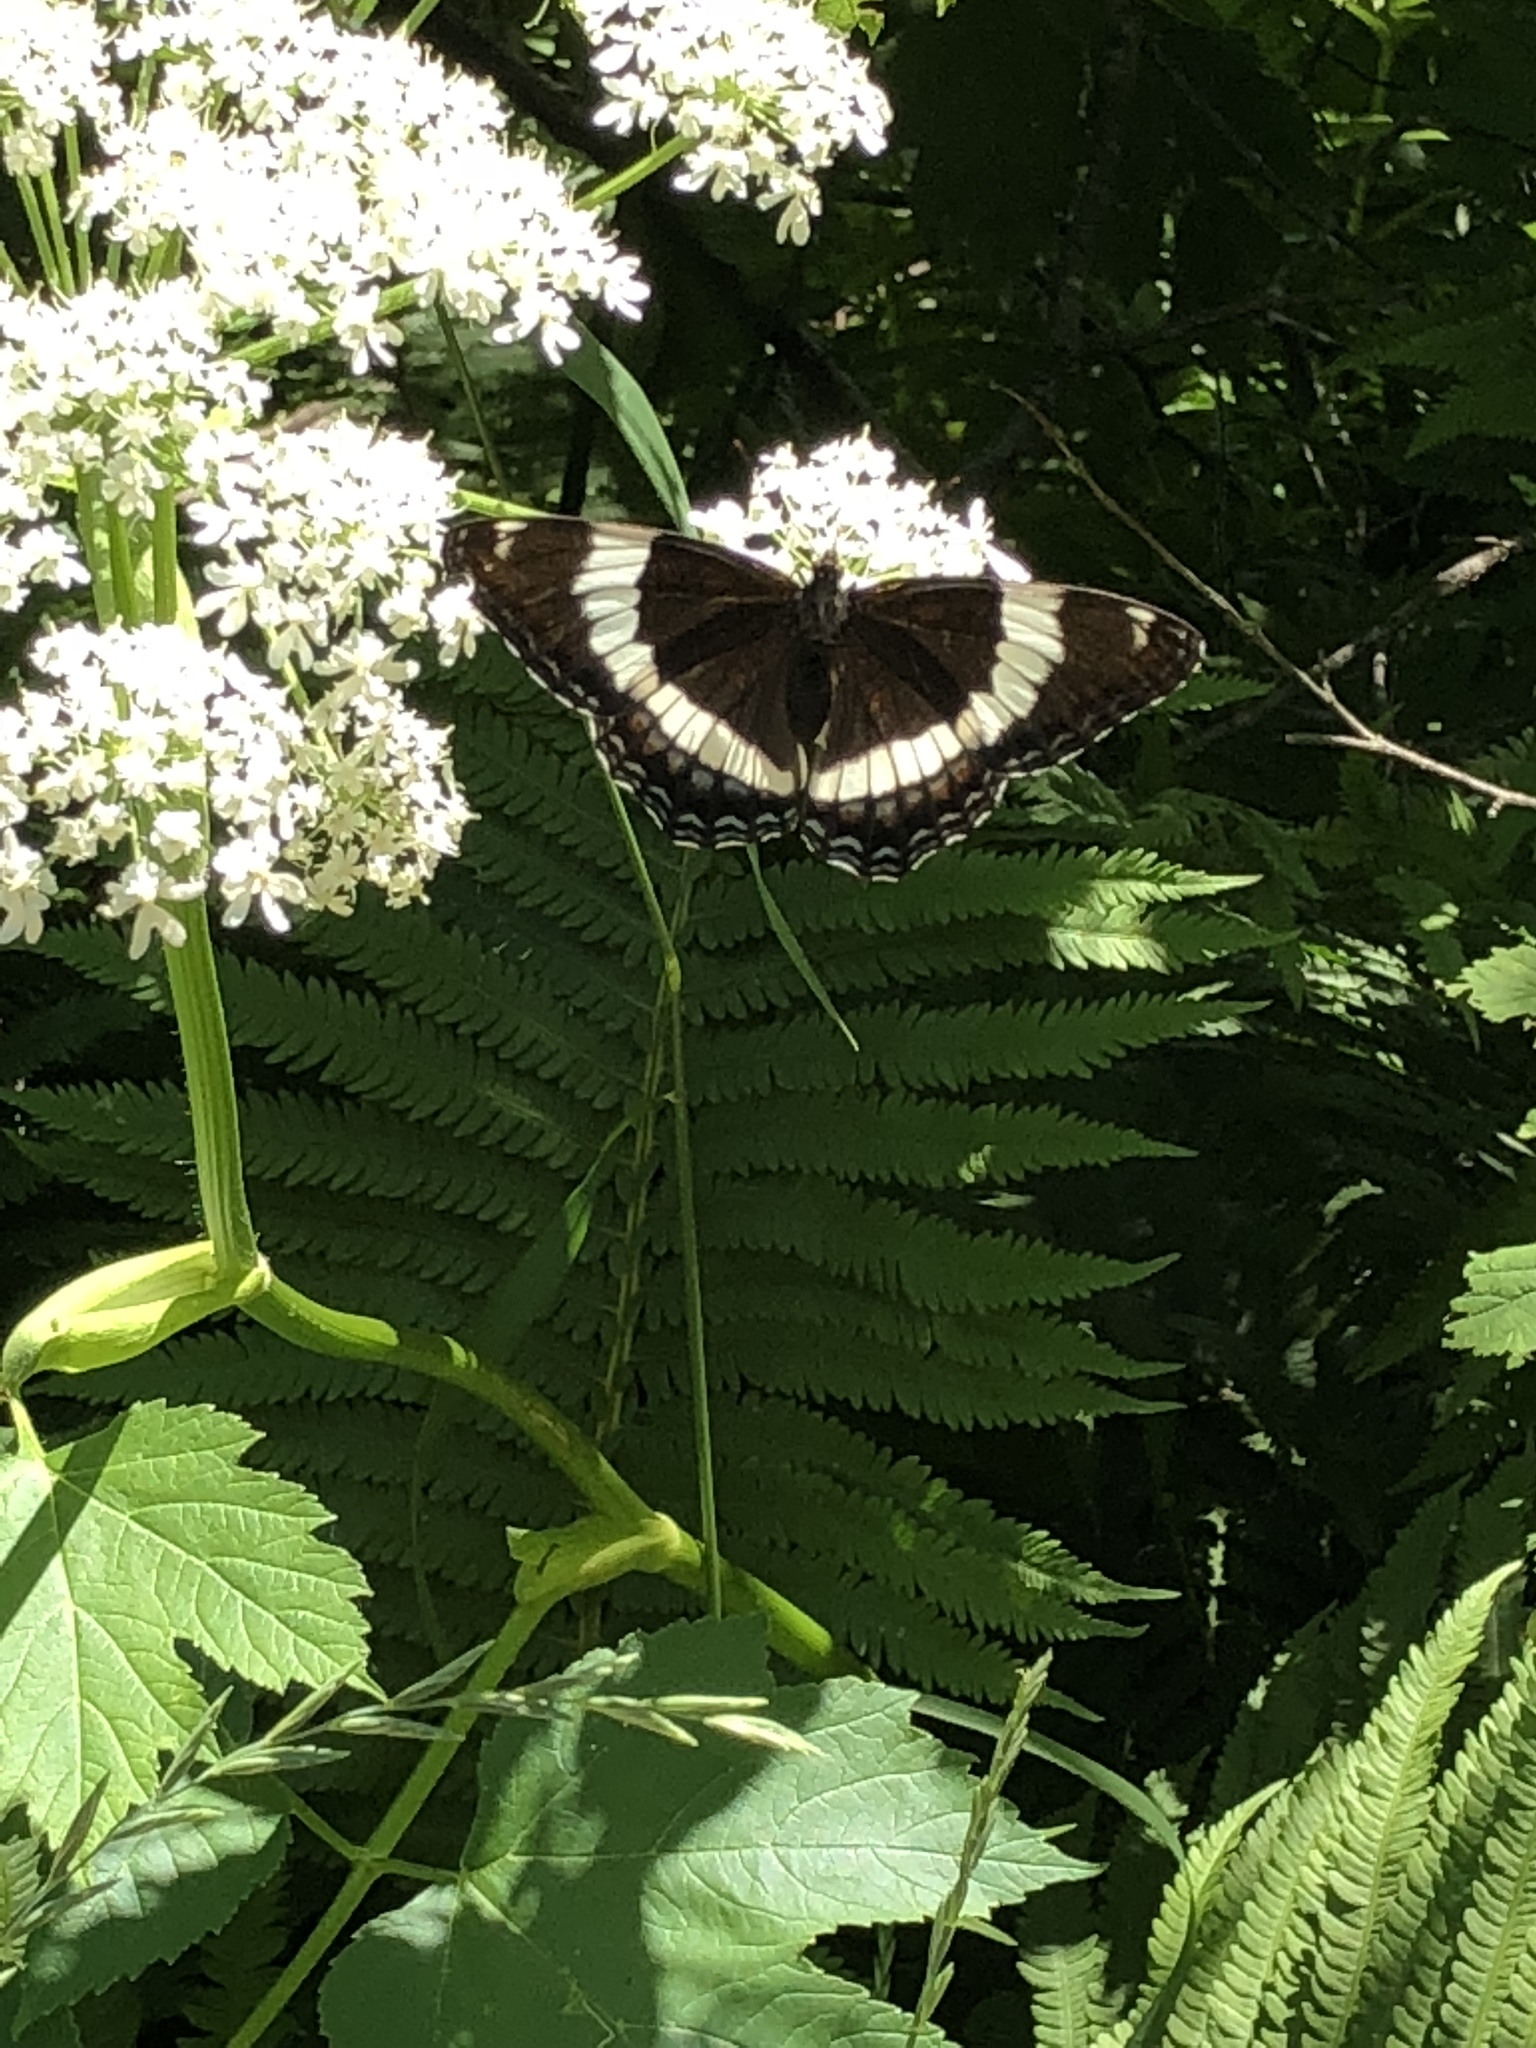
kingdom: Animalia
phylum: Arthropoda
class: Insecta
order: Lepidoptera
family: Nymphalidae
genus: Limenitis
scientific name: Limenitis arthemis
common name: Red-spotted admiral
